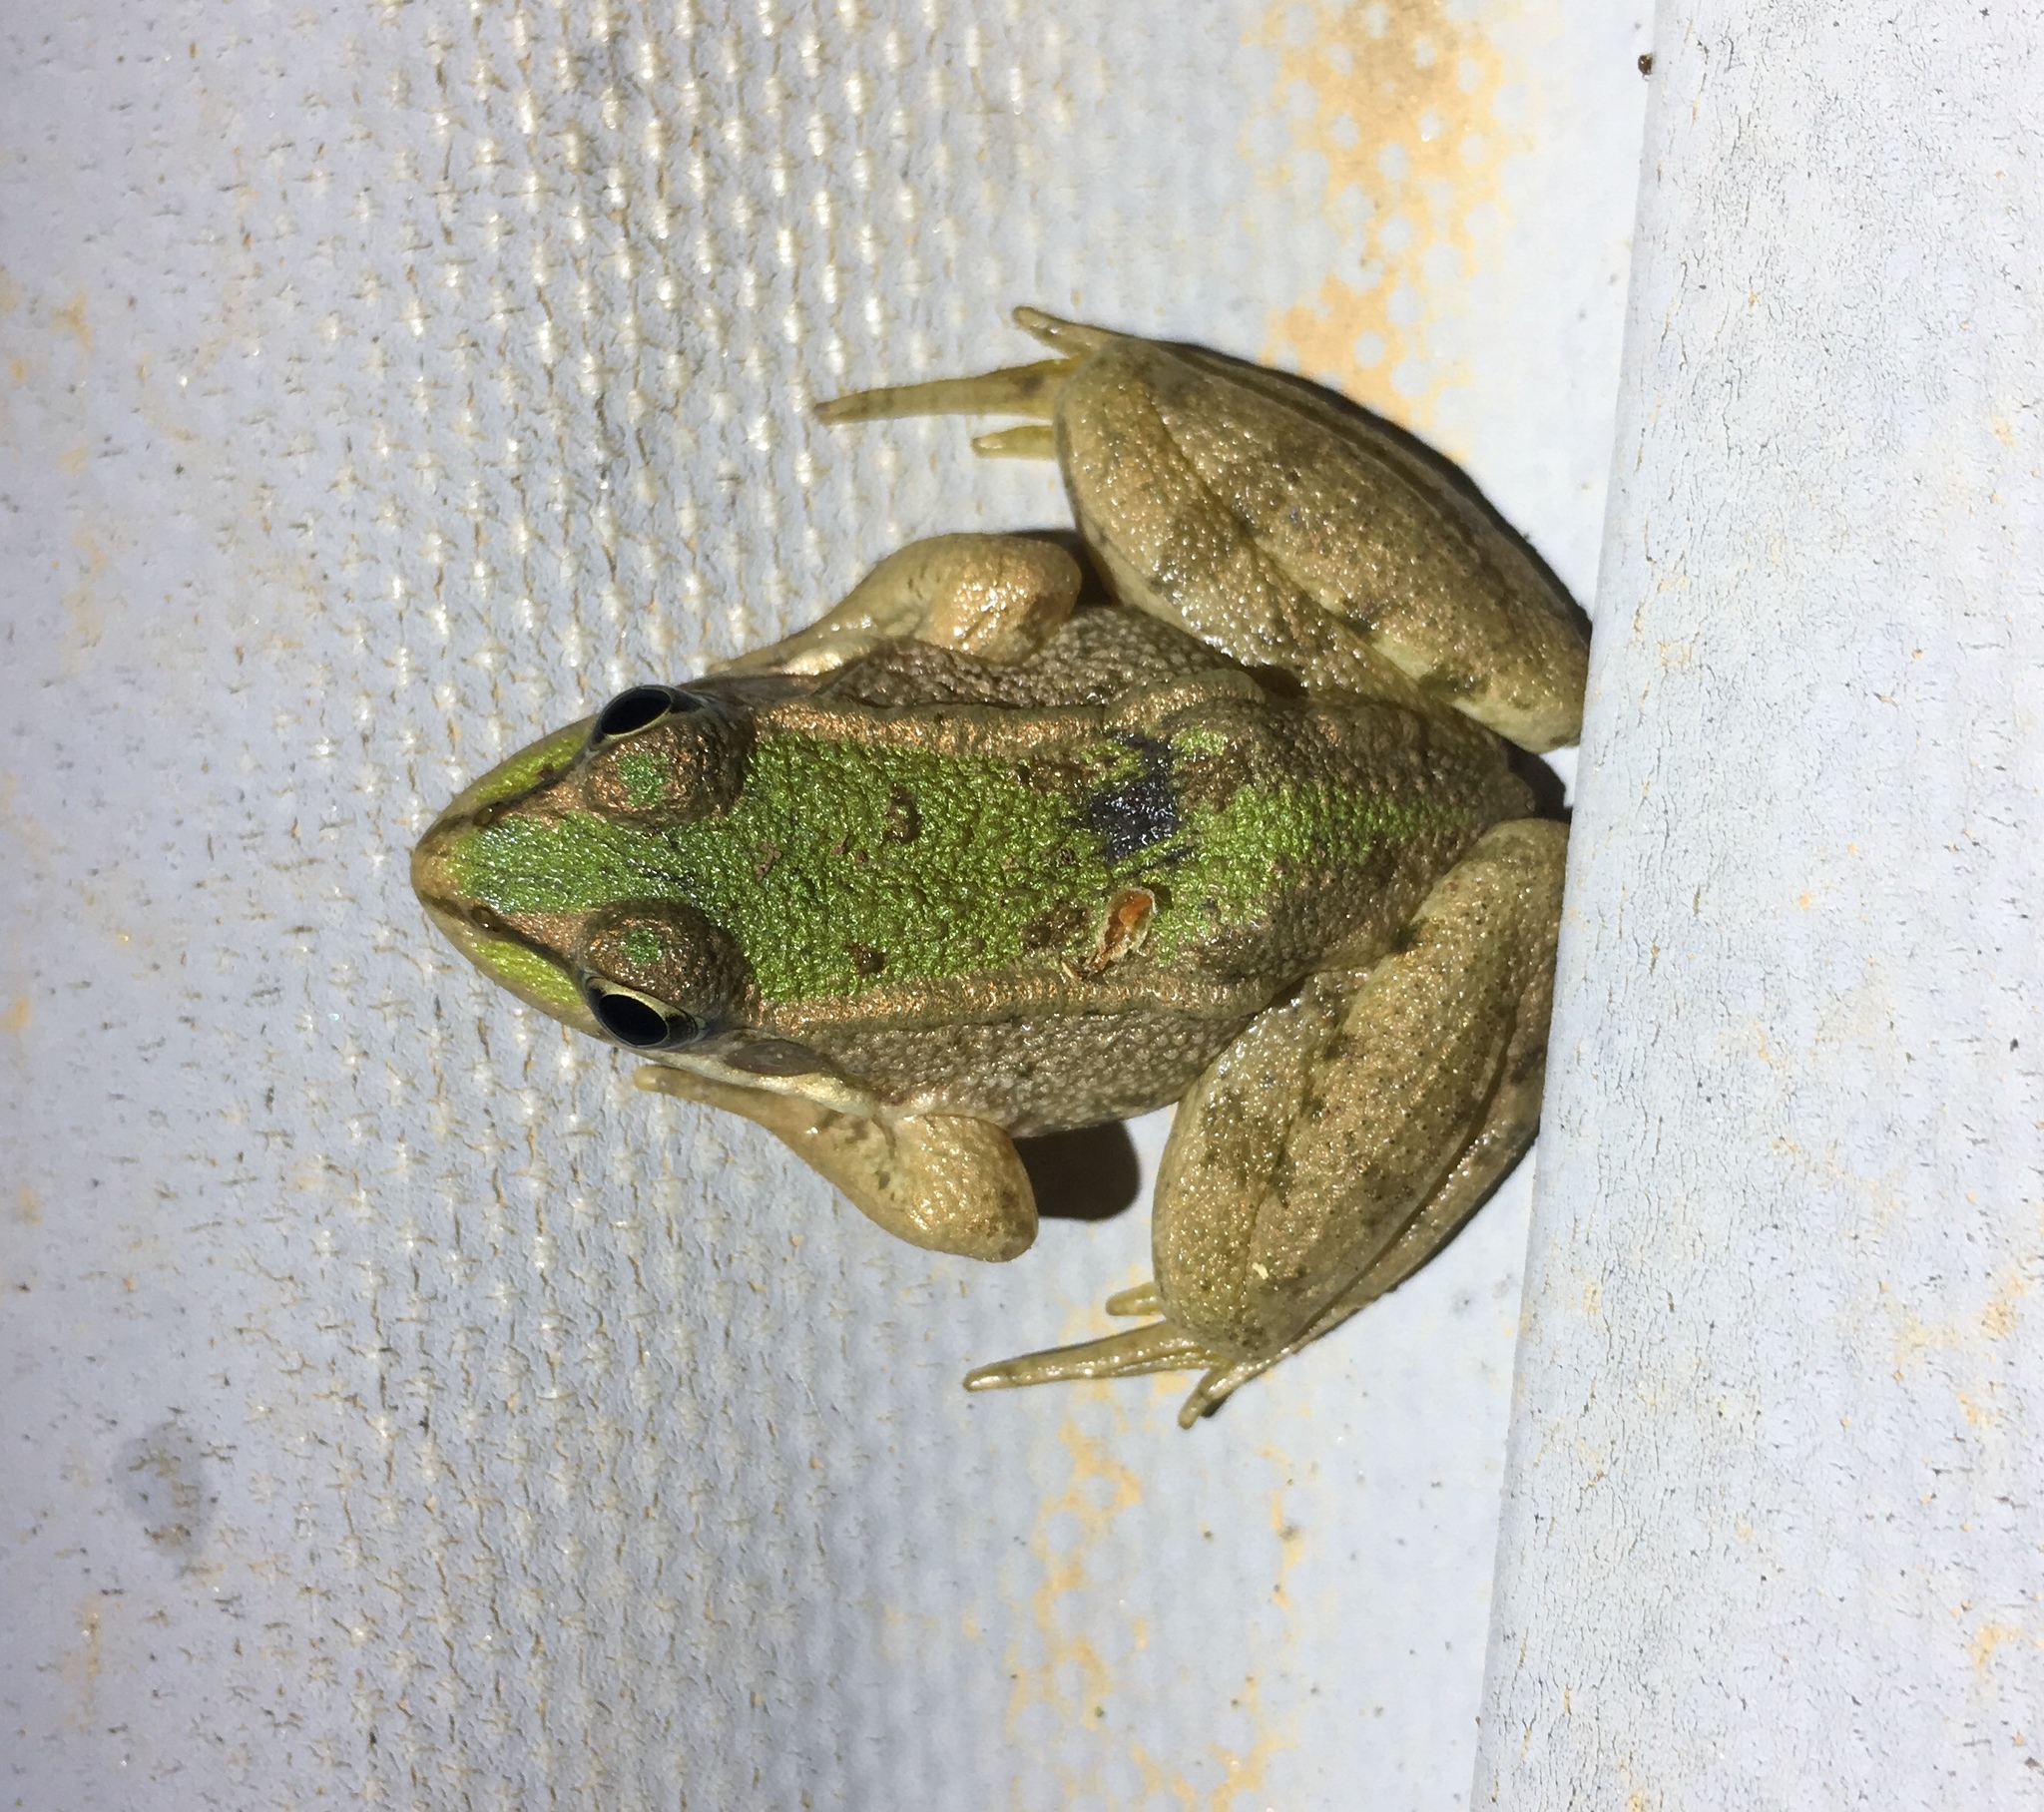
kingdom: Animalia
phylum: Chordata
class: Amphibia
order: Anura
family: Ranidae
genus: Pelophylax
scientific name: Pelophylax perezi
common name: Perez's frog
